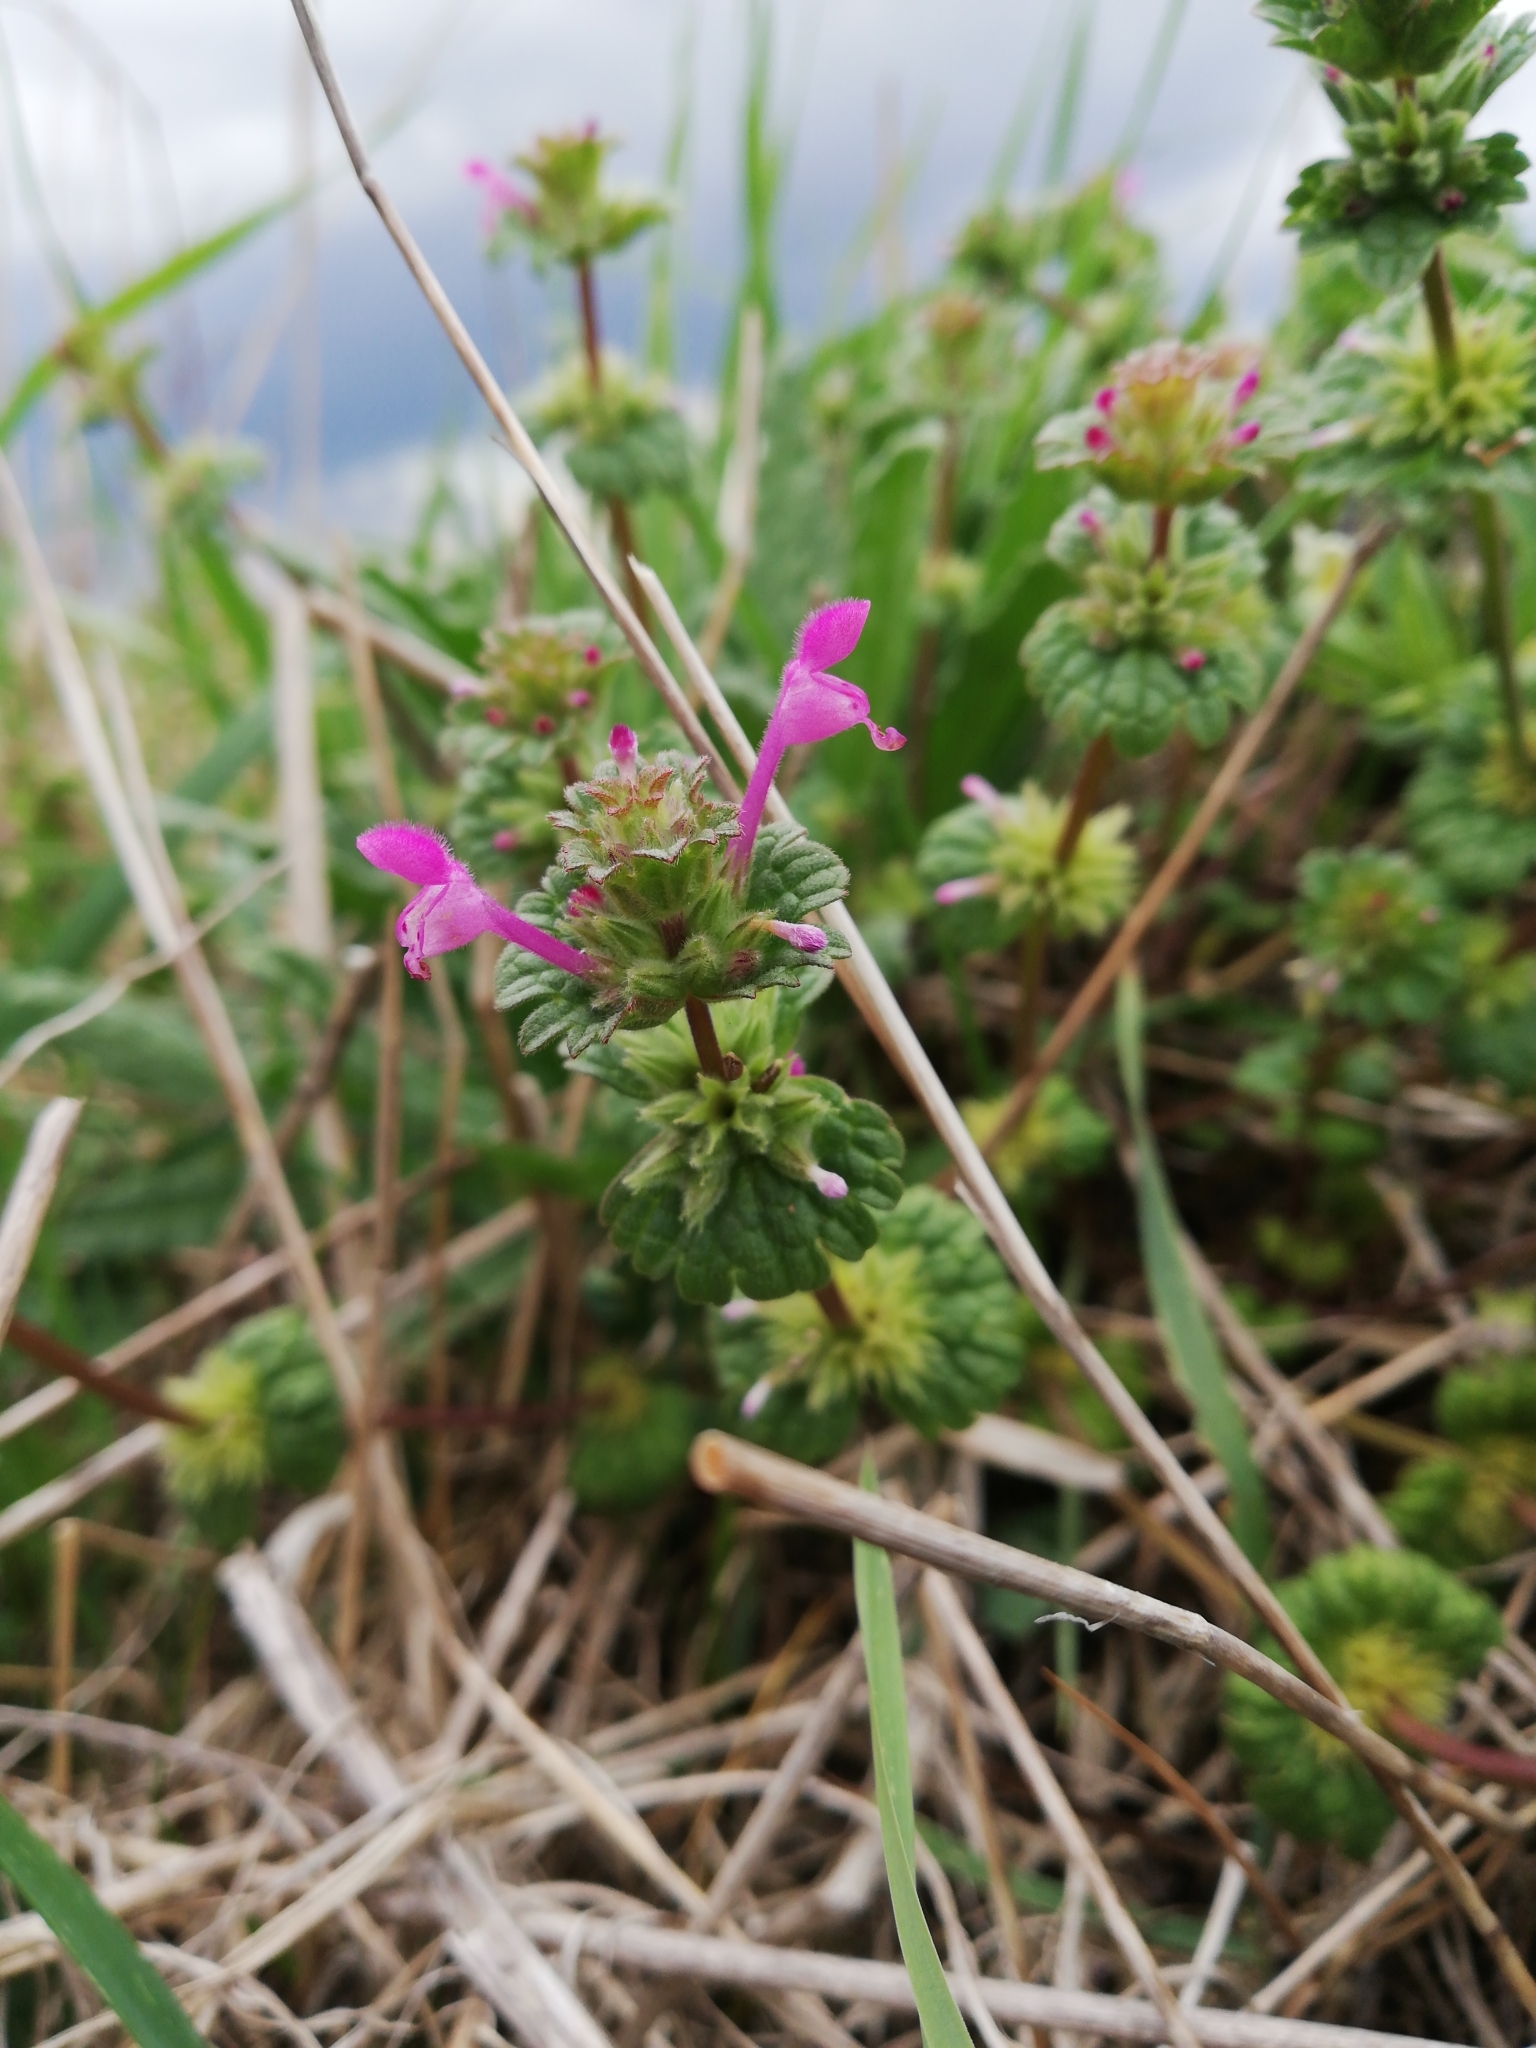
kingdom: Plantae
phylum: Tracheophyta
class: Magnoliopsida
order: Lamiales
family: Lamiaceae
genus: Lamium
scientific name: Lamium amplexicaule
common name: Henbit dead-nettle
